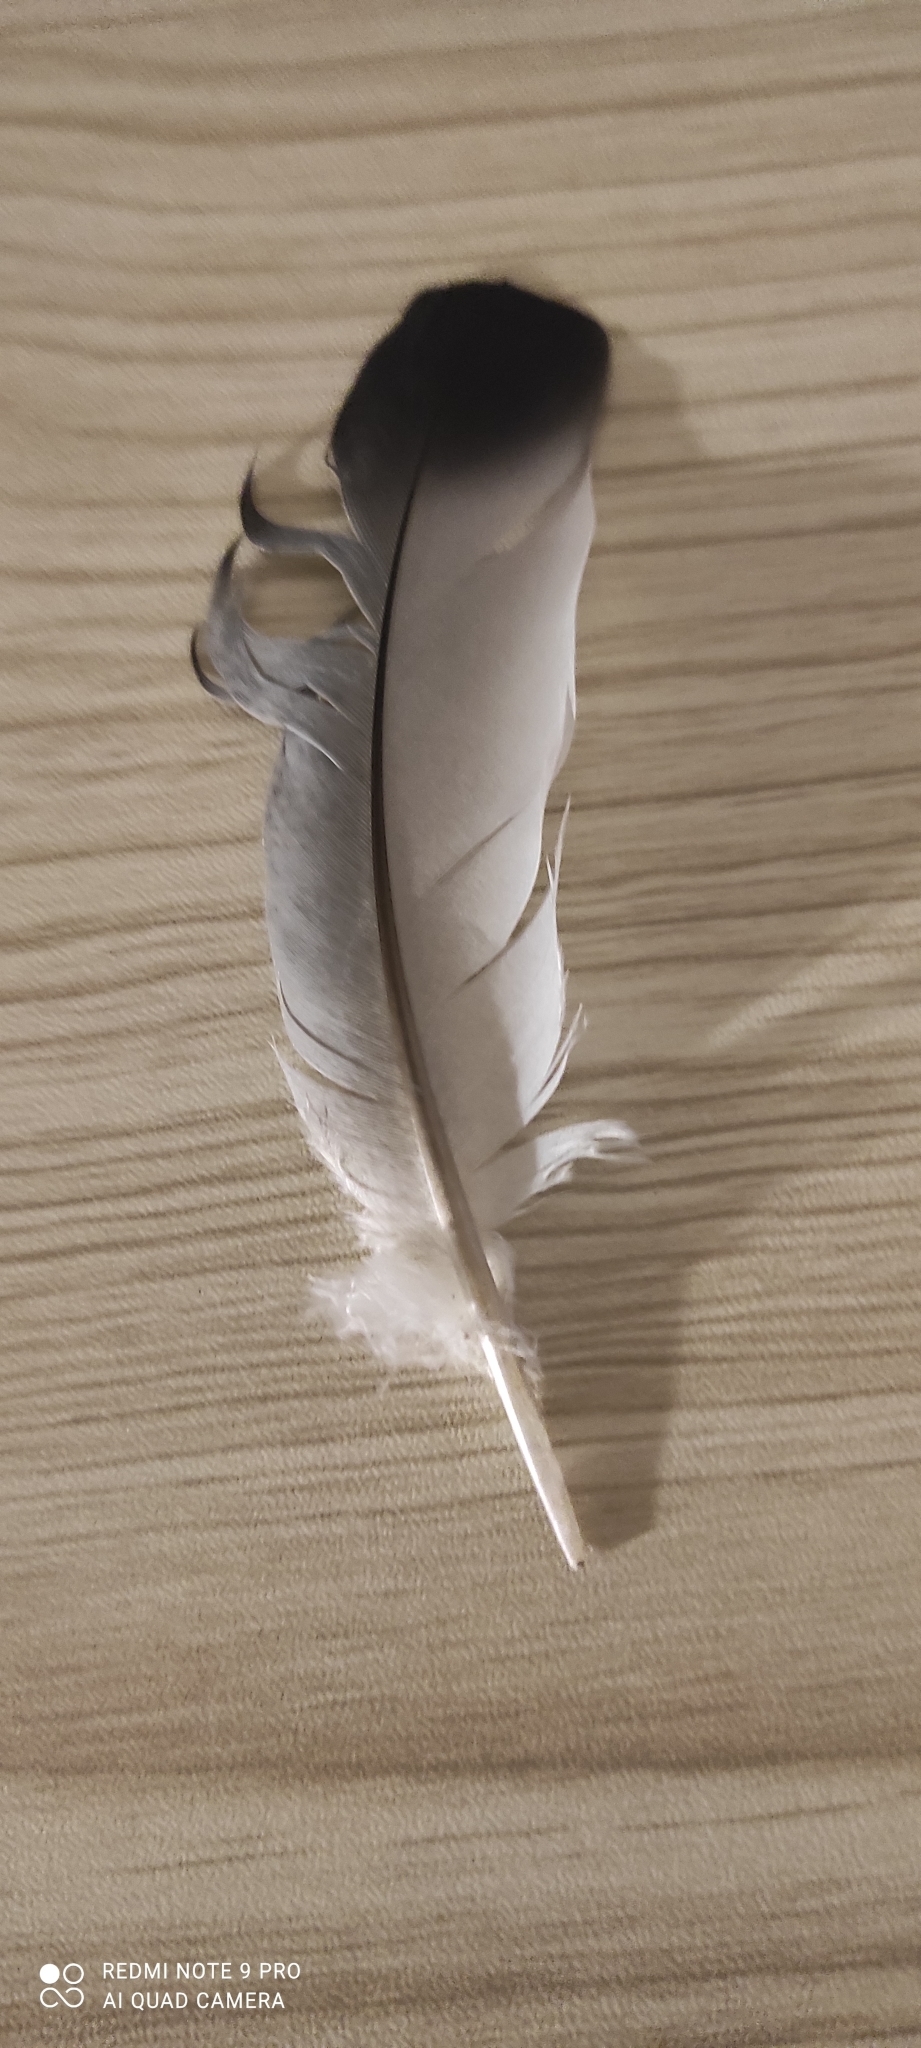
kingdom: Animalia
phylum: Chordata
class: Aves
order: Columbiformes
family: Columbidae
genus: Columba
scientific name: Columba livia
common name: Rock pigeon
